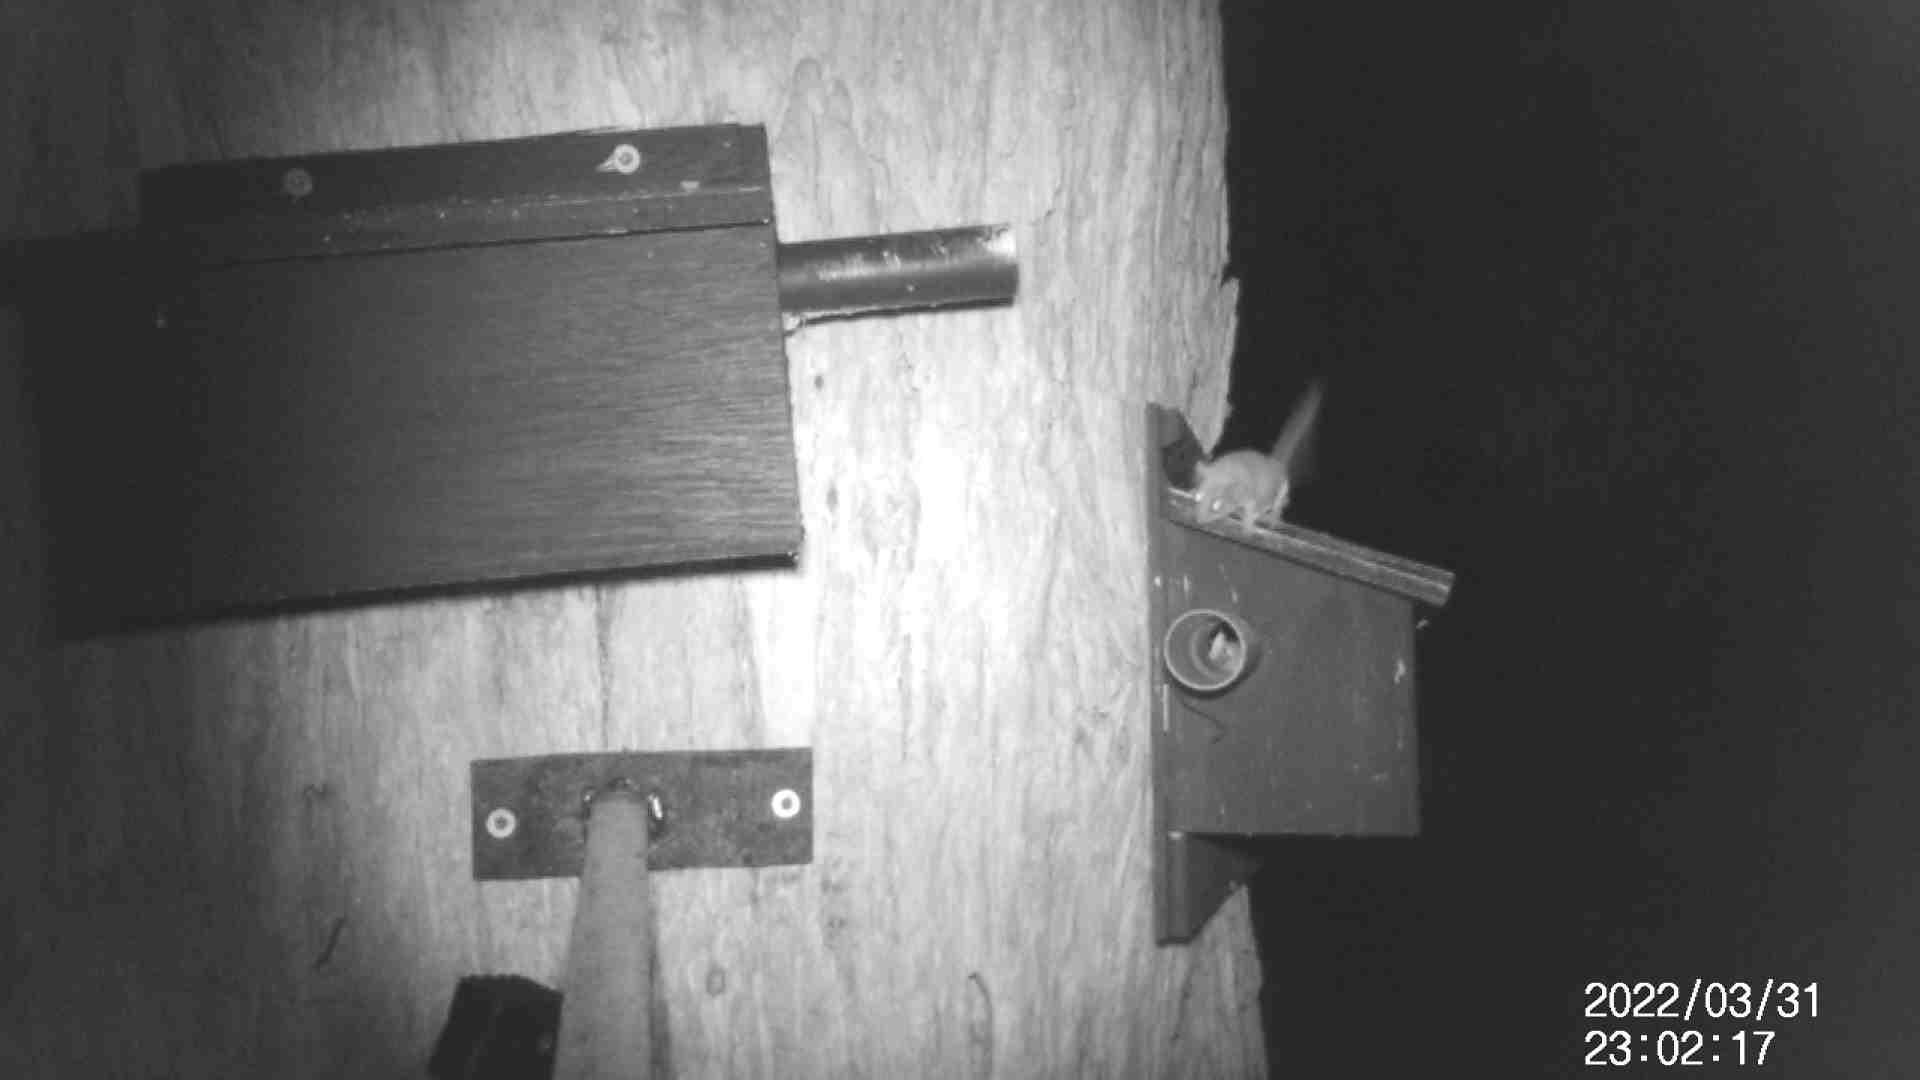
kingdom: Animalia
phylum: Chordata
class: Mammalia
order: Diprotodontia
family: Acrobatidae
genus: Acrobates
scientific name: Acrobates pygmaeus
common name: Feathertail glider
